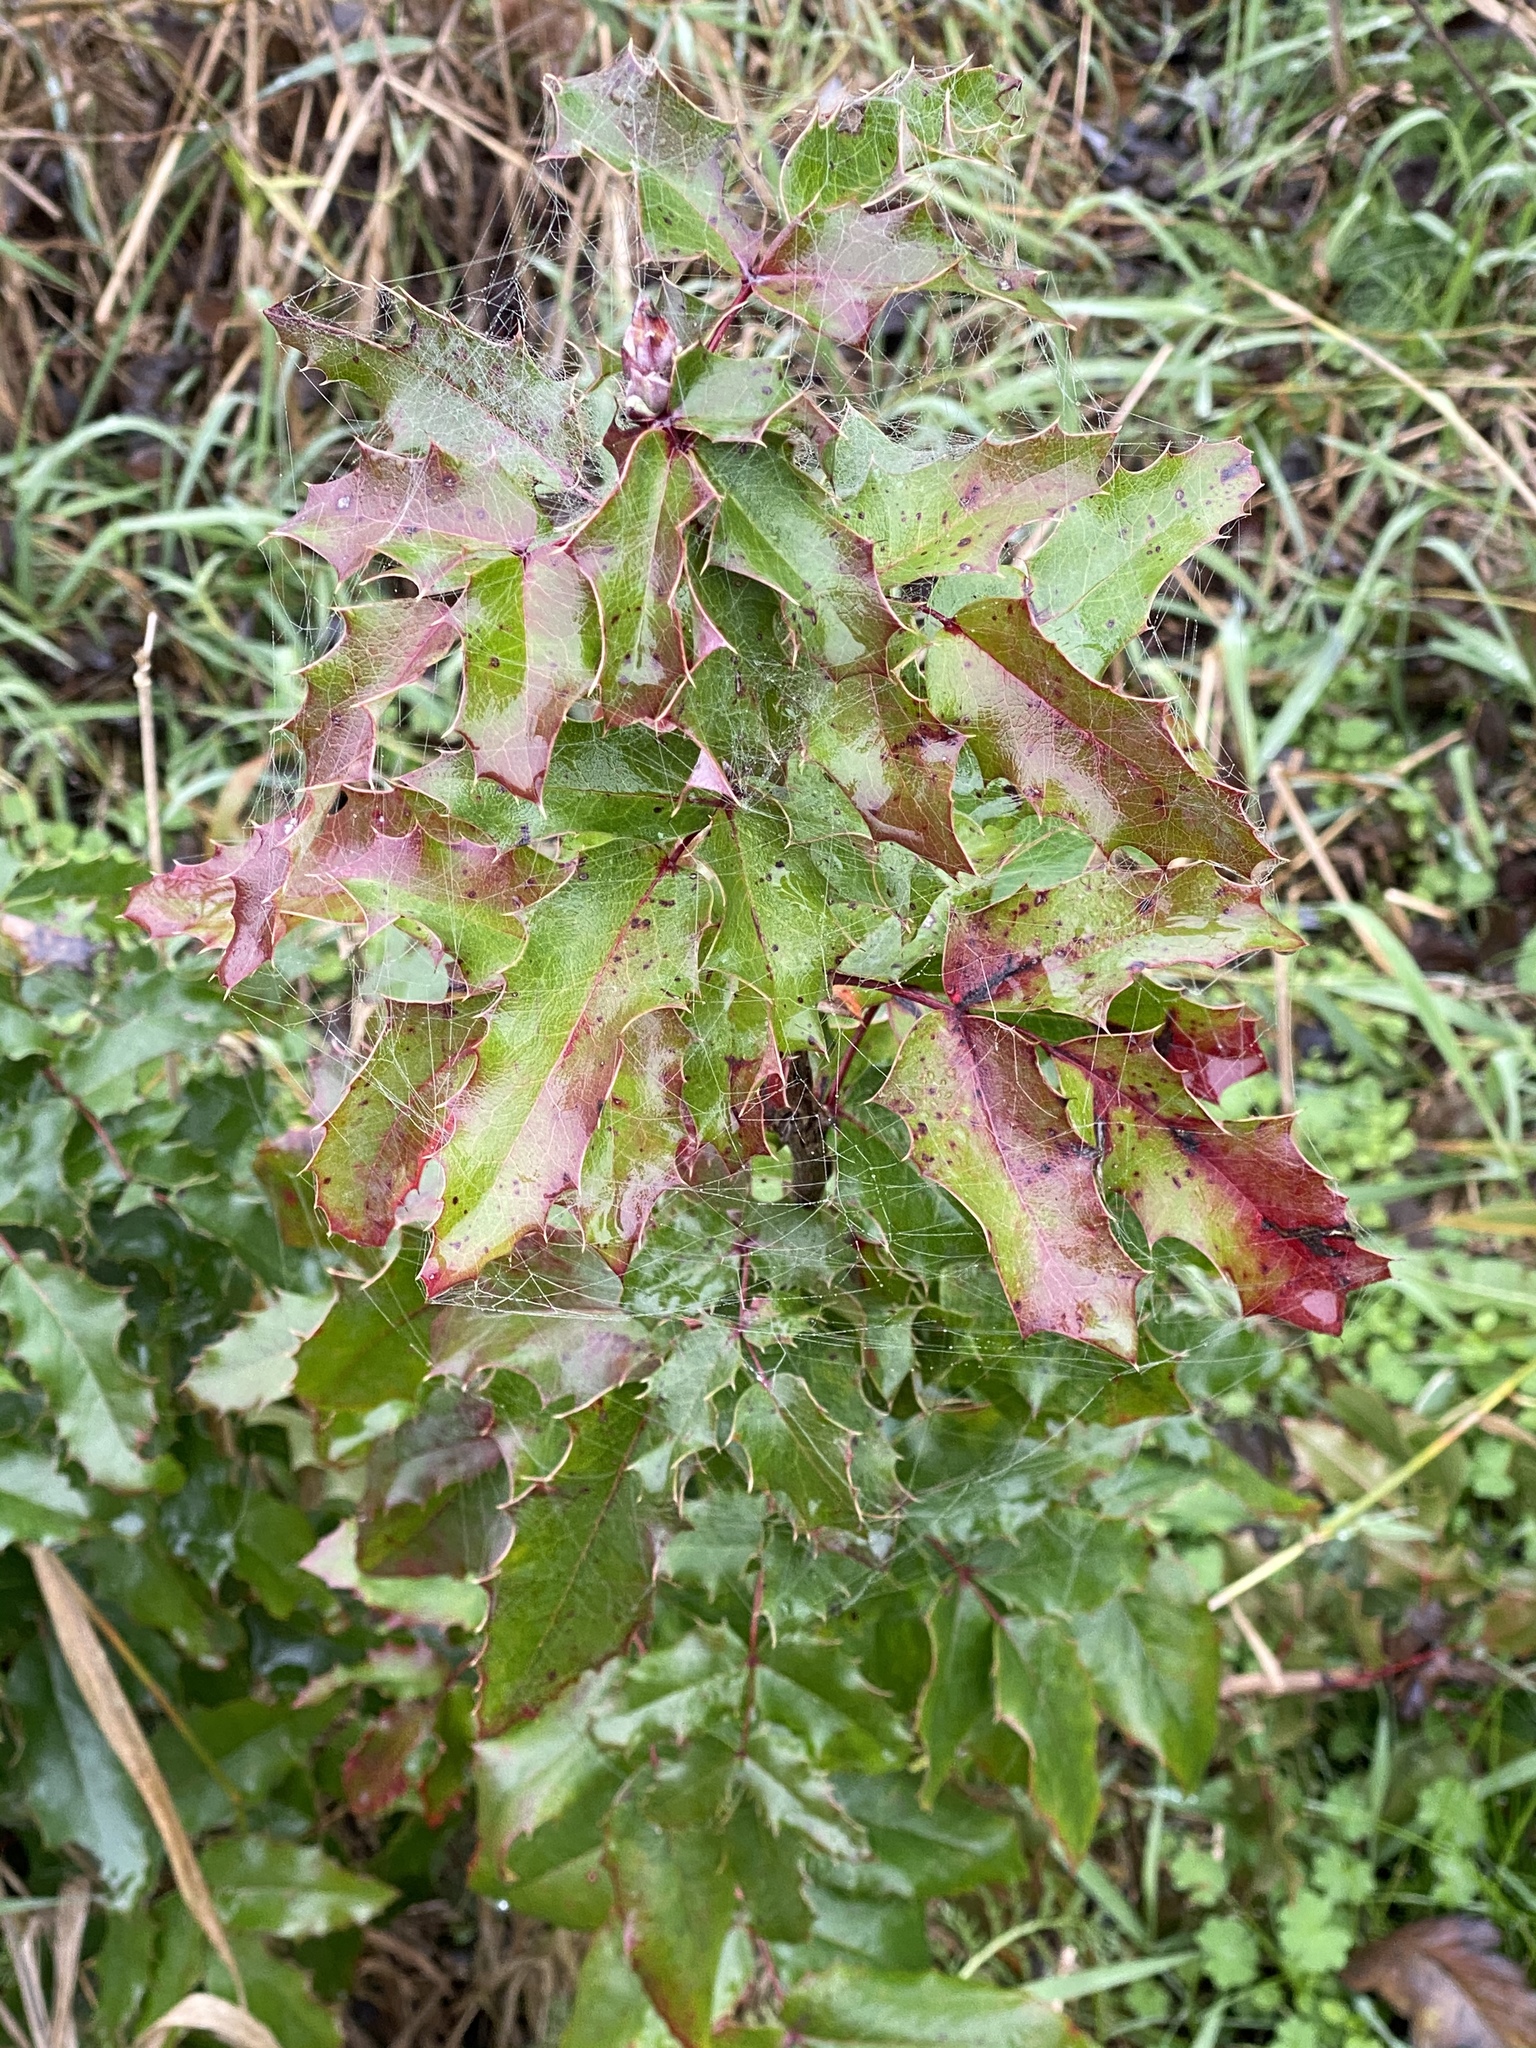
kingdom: Plantae
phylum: Tracheophyta
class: Magnoliopsida
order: Ranunculales
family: Berberidaceae
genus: Mahonia
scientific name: Mahonia aquifolium
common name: Oregon-grape
